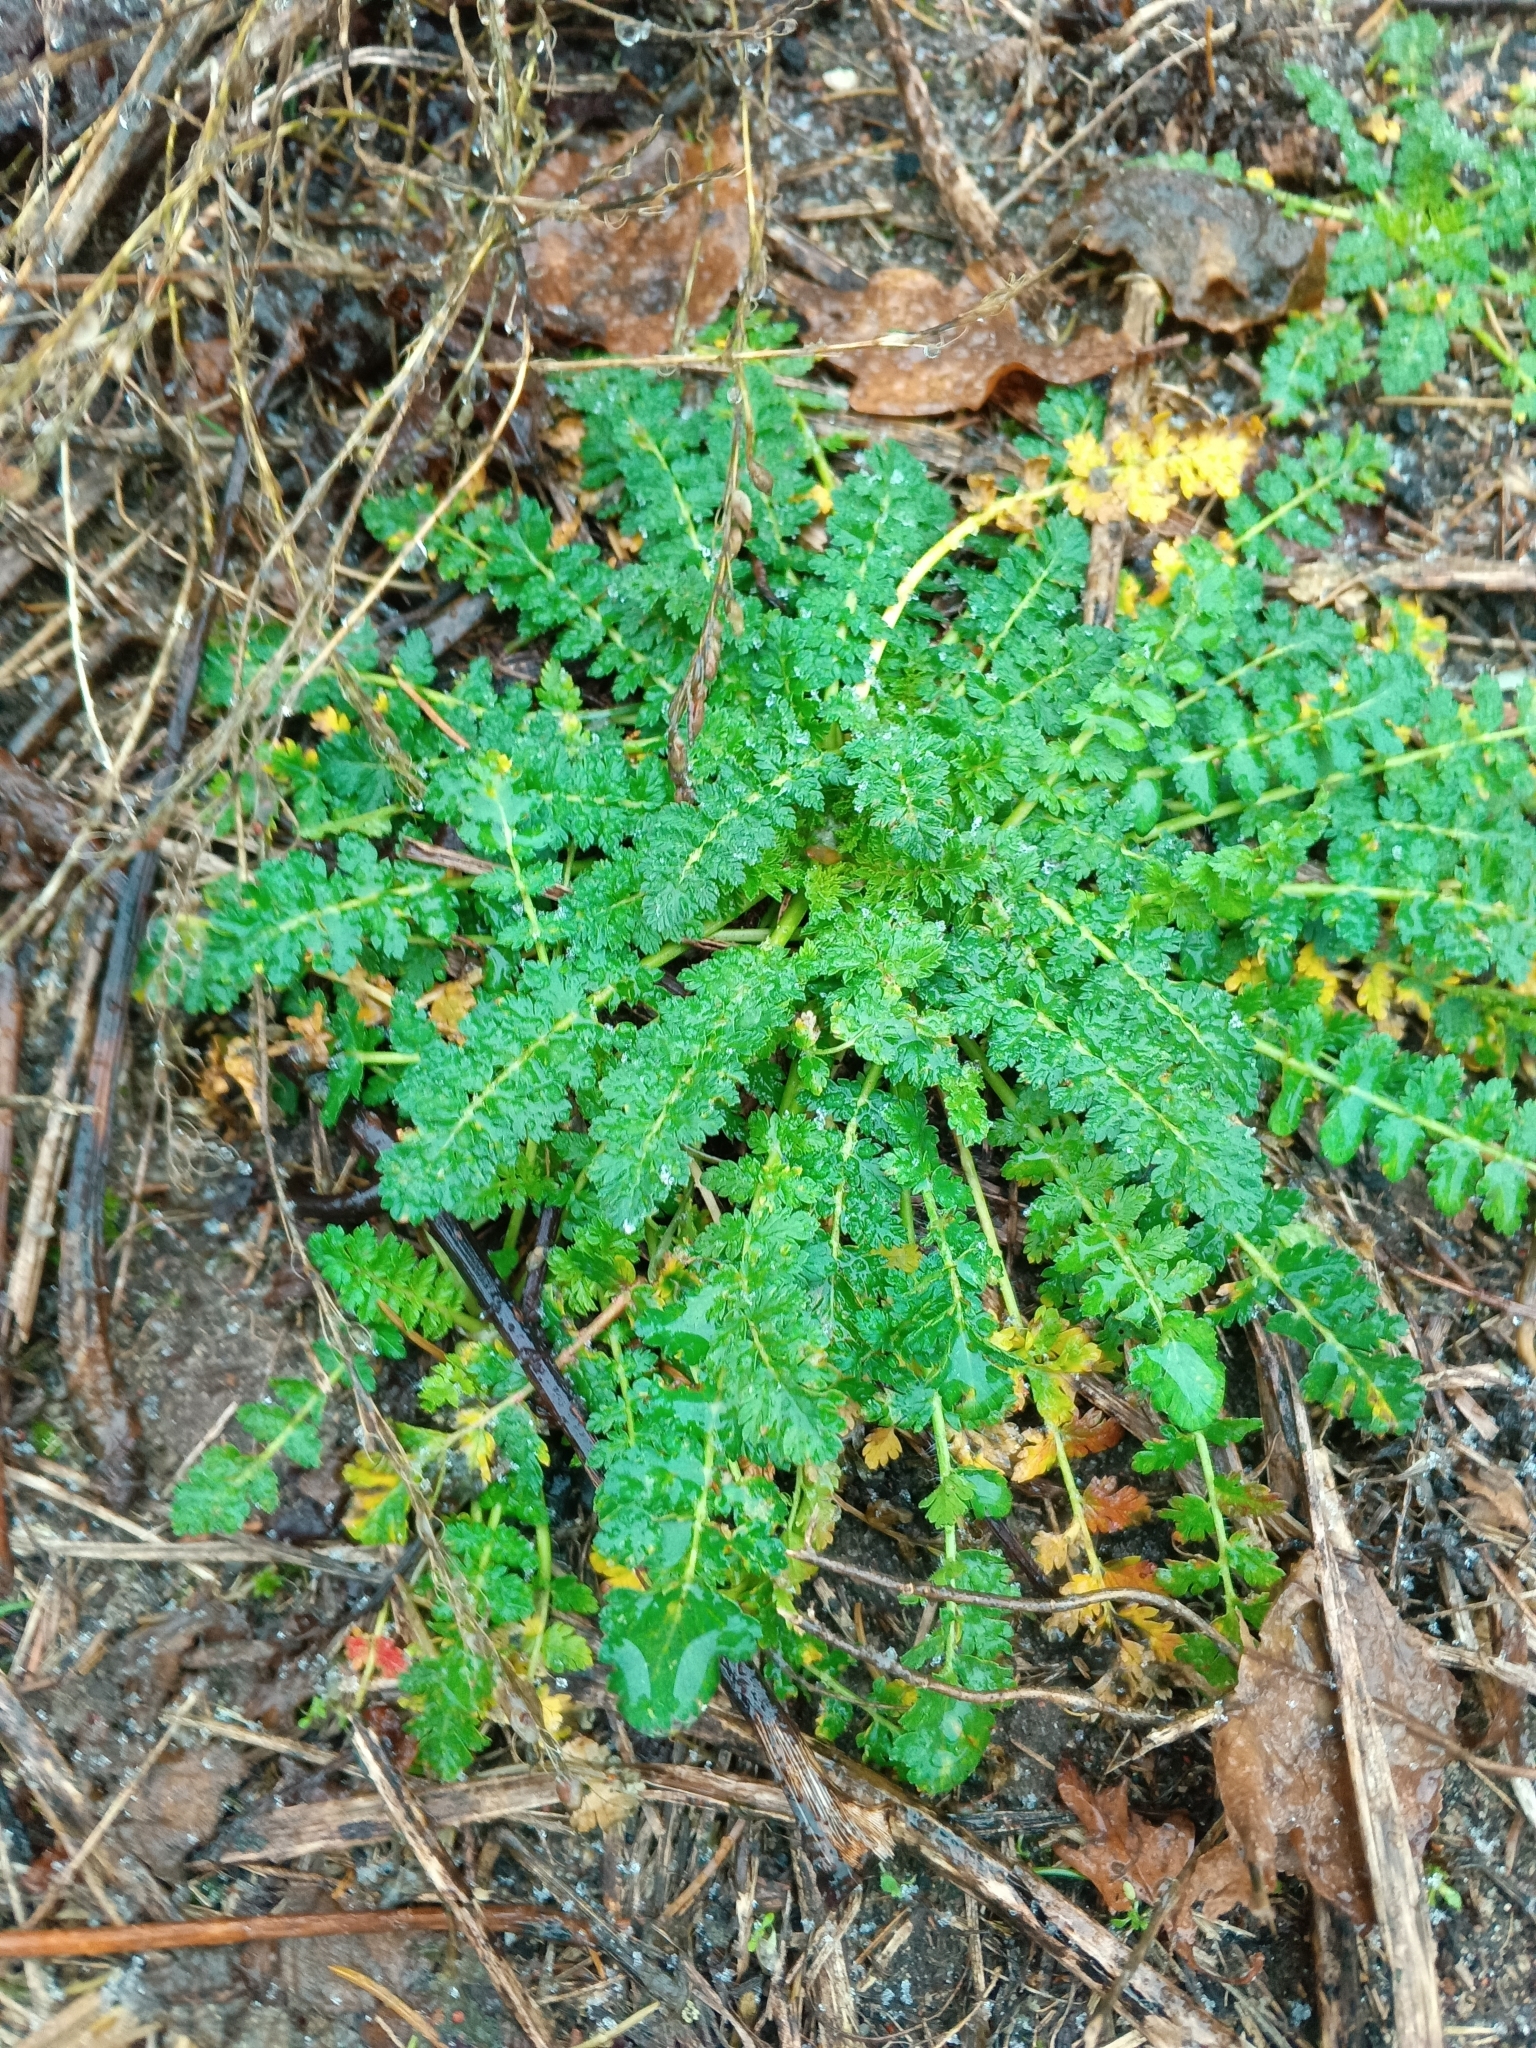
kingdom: Plantae
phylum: Tracheophyta
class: Magnoliopsida
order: Geraniales
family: Geraniaceae
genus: Erodium
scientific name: Erodium cicutarium
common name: Common stork's-bill
